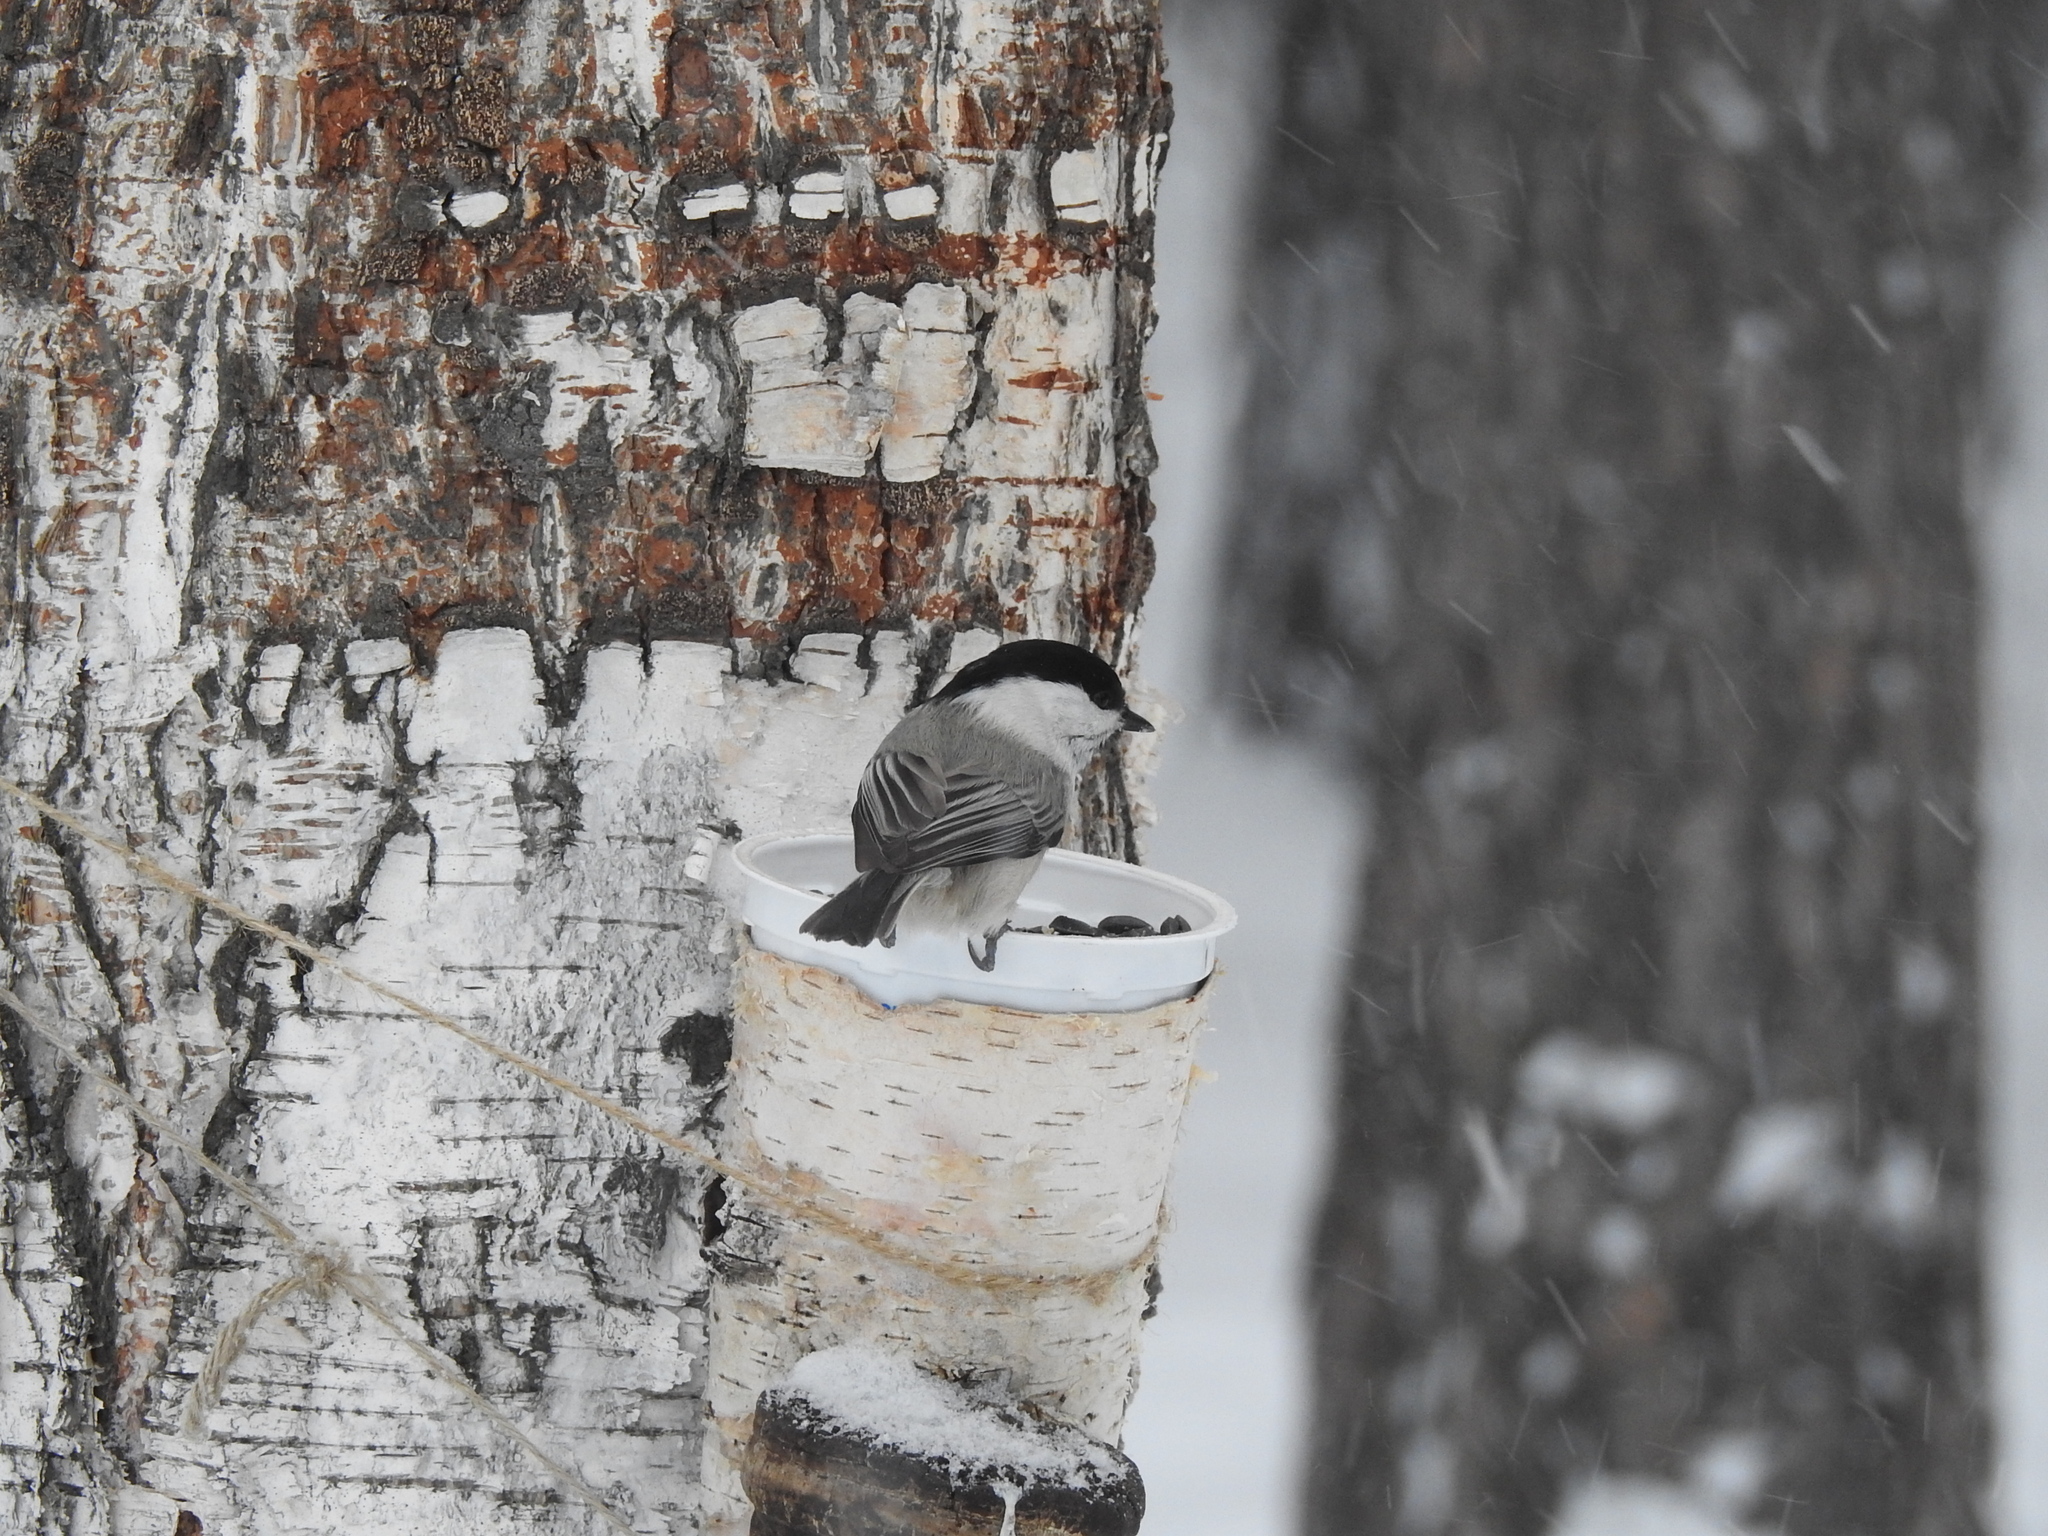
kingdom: Animalia
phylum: Chordata
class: Aves
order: Passeriformes
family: Paridae
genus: Poecile
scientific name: Poecile montanus
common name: Willow tit
